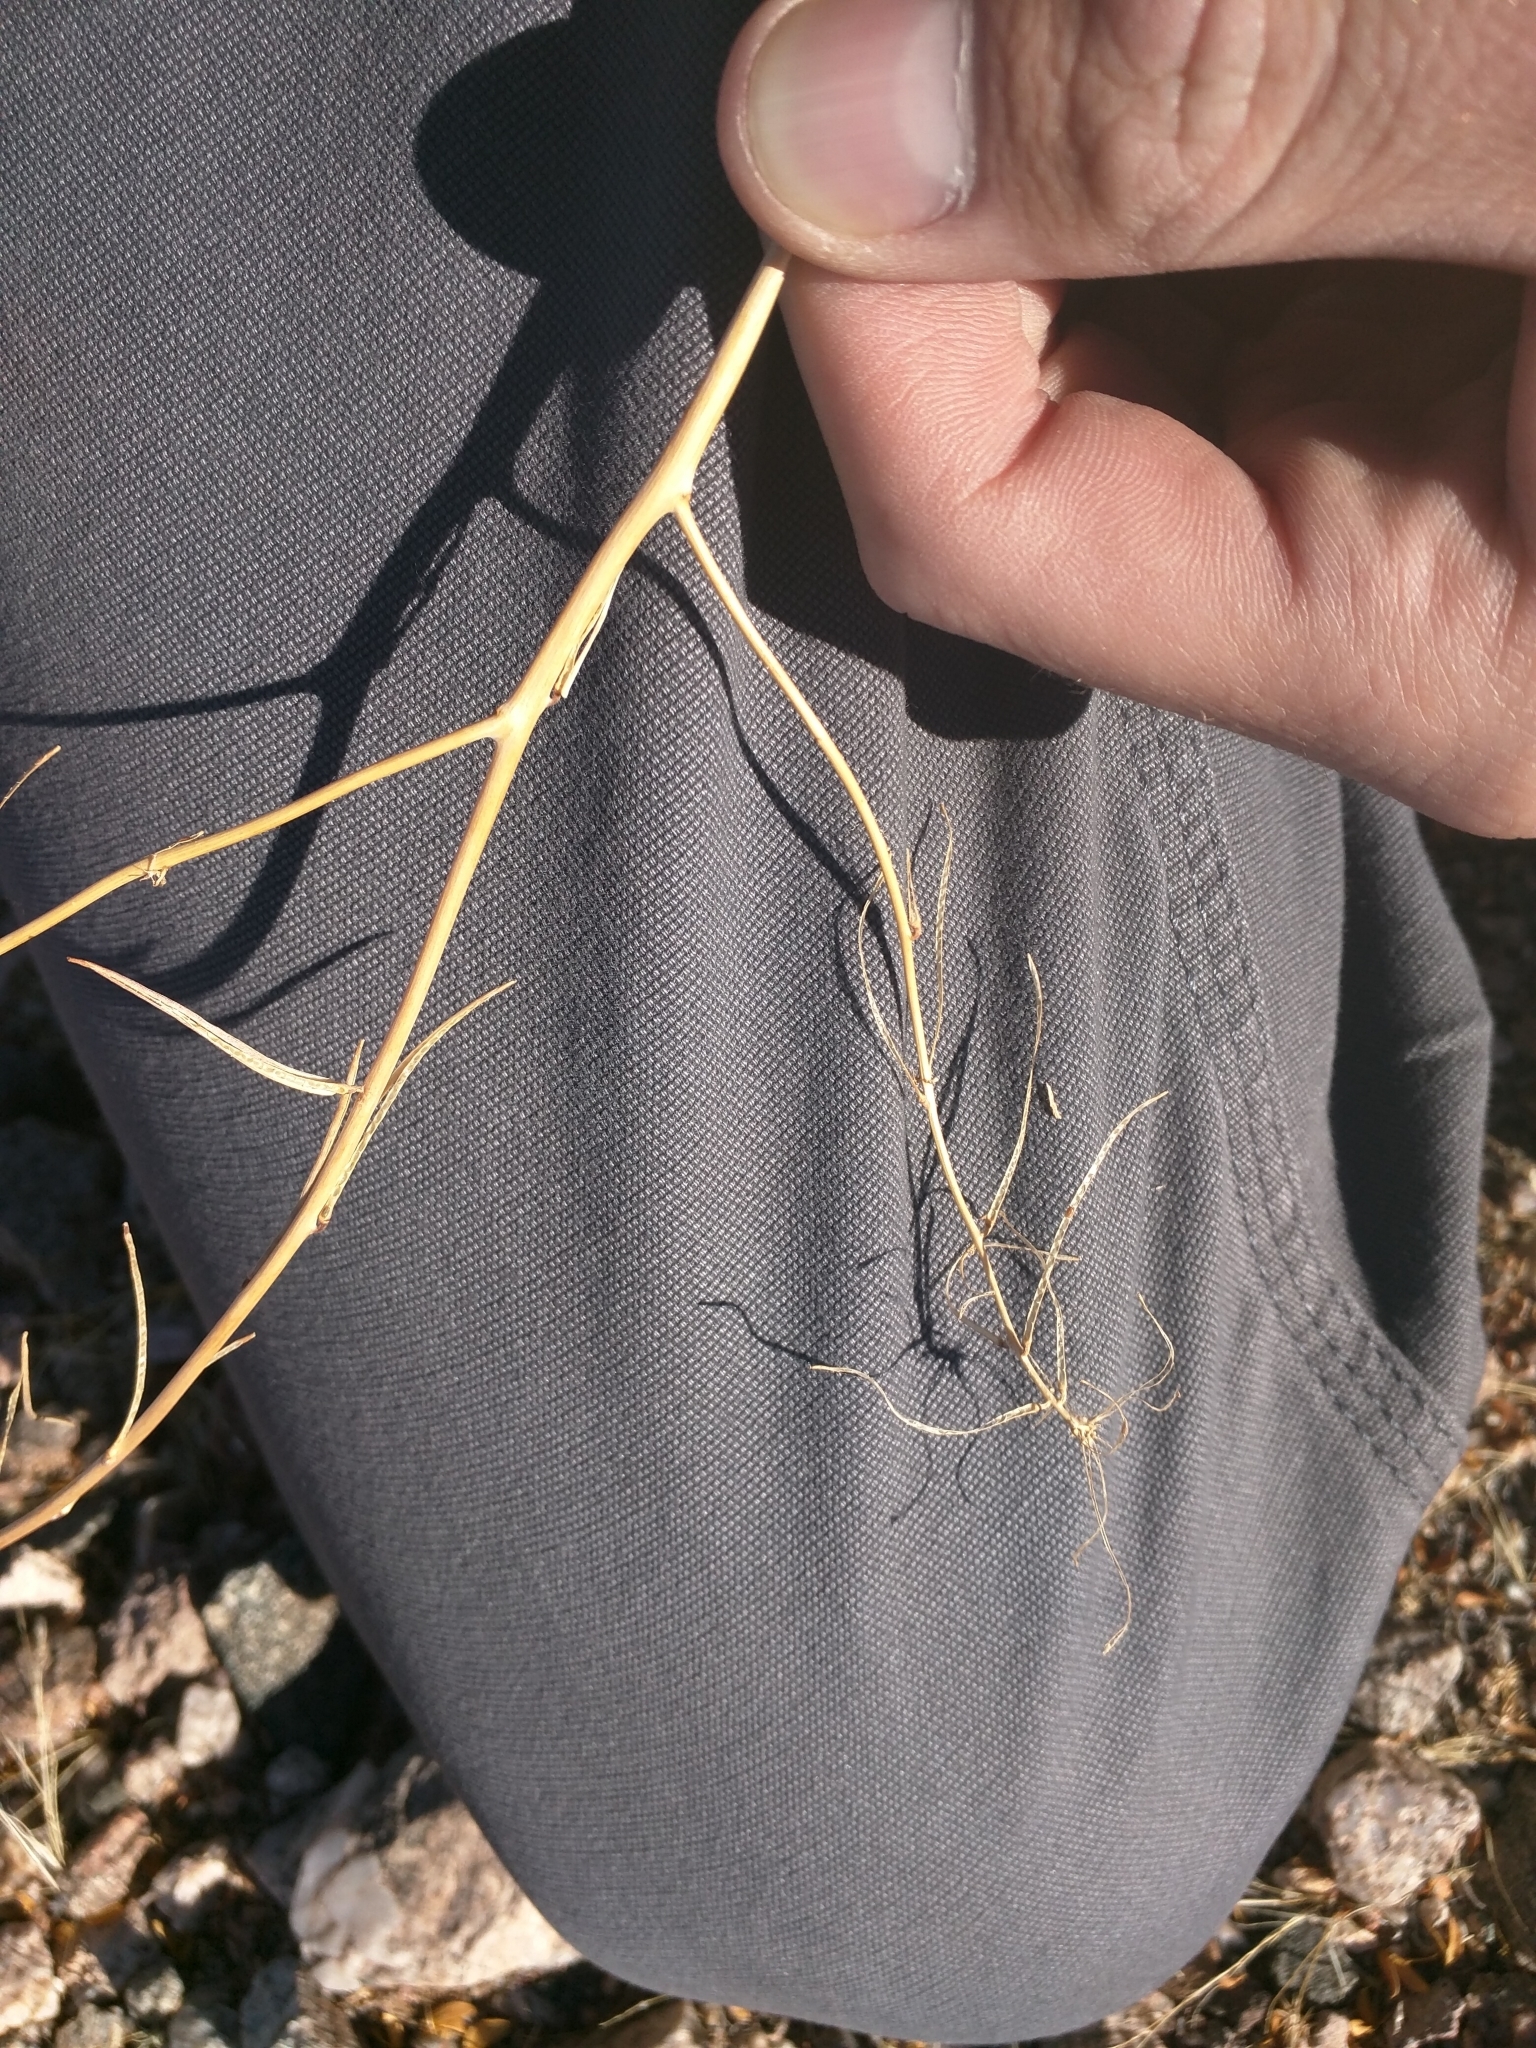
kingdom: Plantae
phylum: Tracheophyta
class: Magnoliopsida
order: Brassicales
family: Brassicaceae
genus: Streptanthus
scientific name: Streptanthus lasiophyllus
